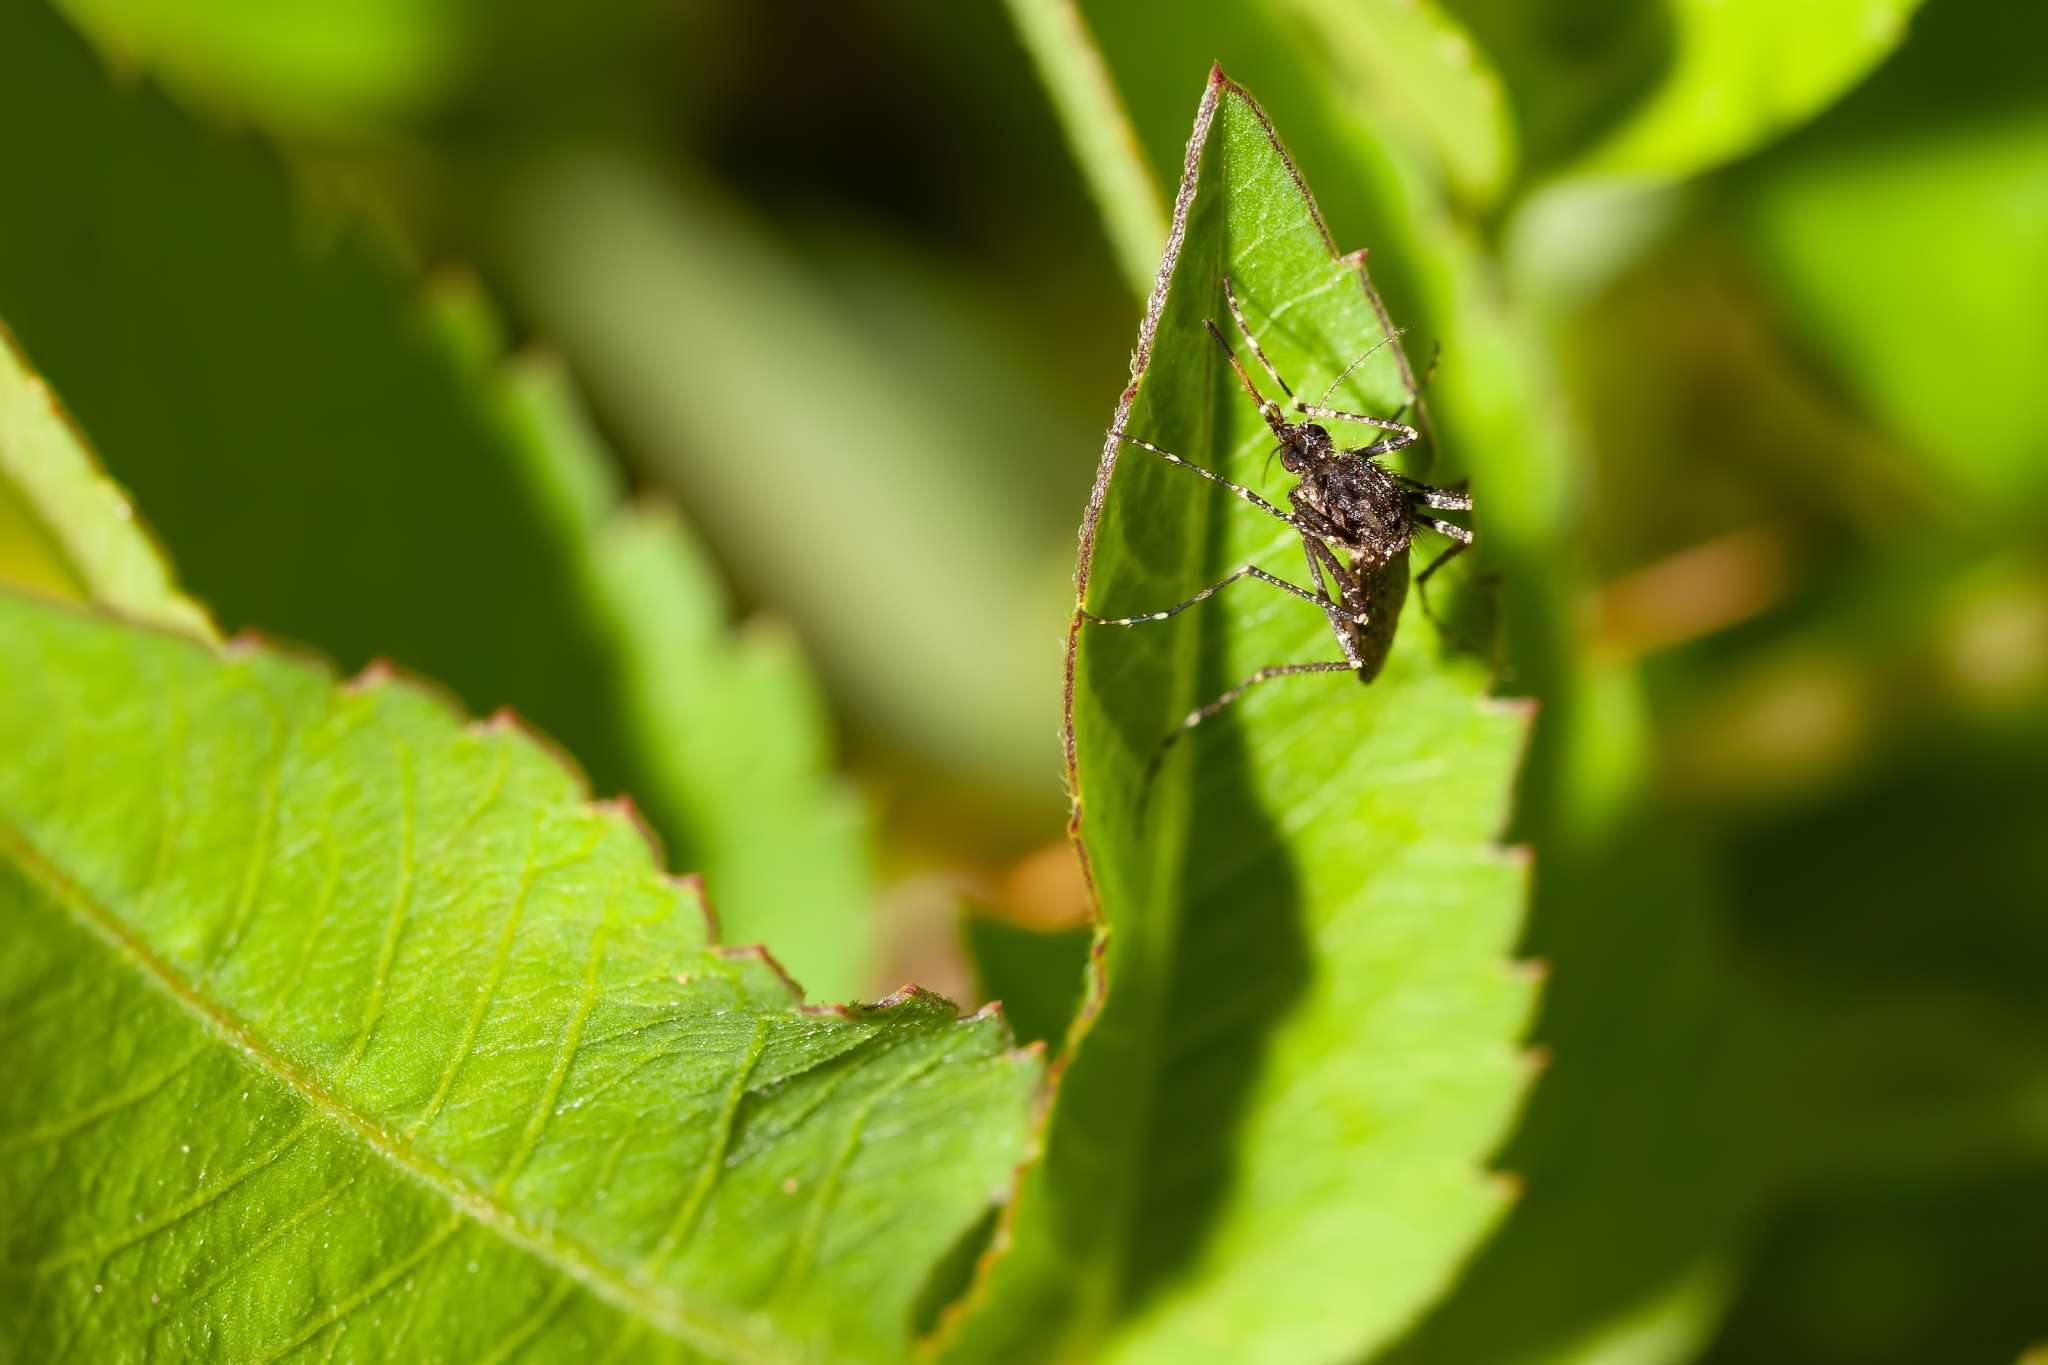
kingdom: Animalia
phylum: Arthropoda
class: Insecta
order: Diptera
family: Culicidae
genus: Psorophora
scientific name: Psorophora columbiae
